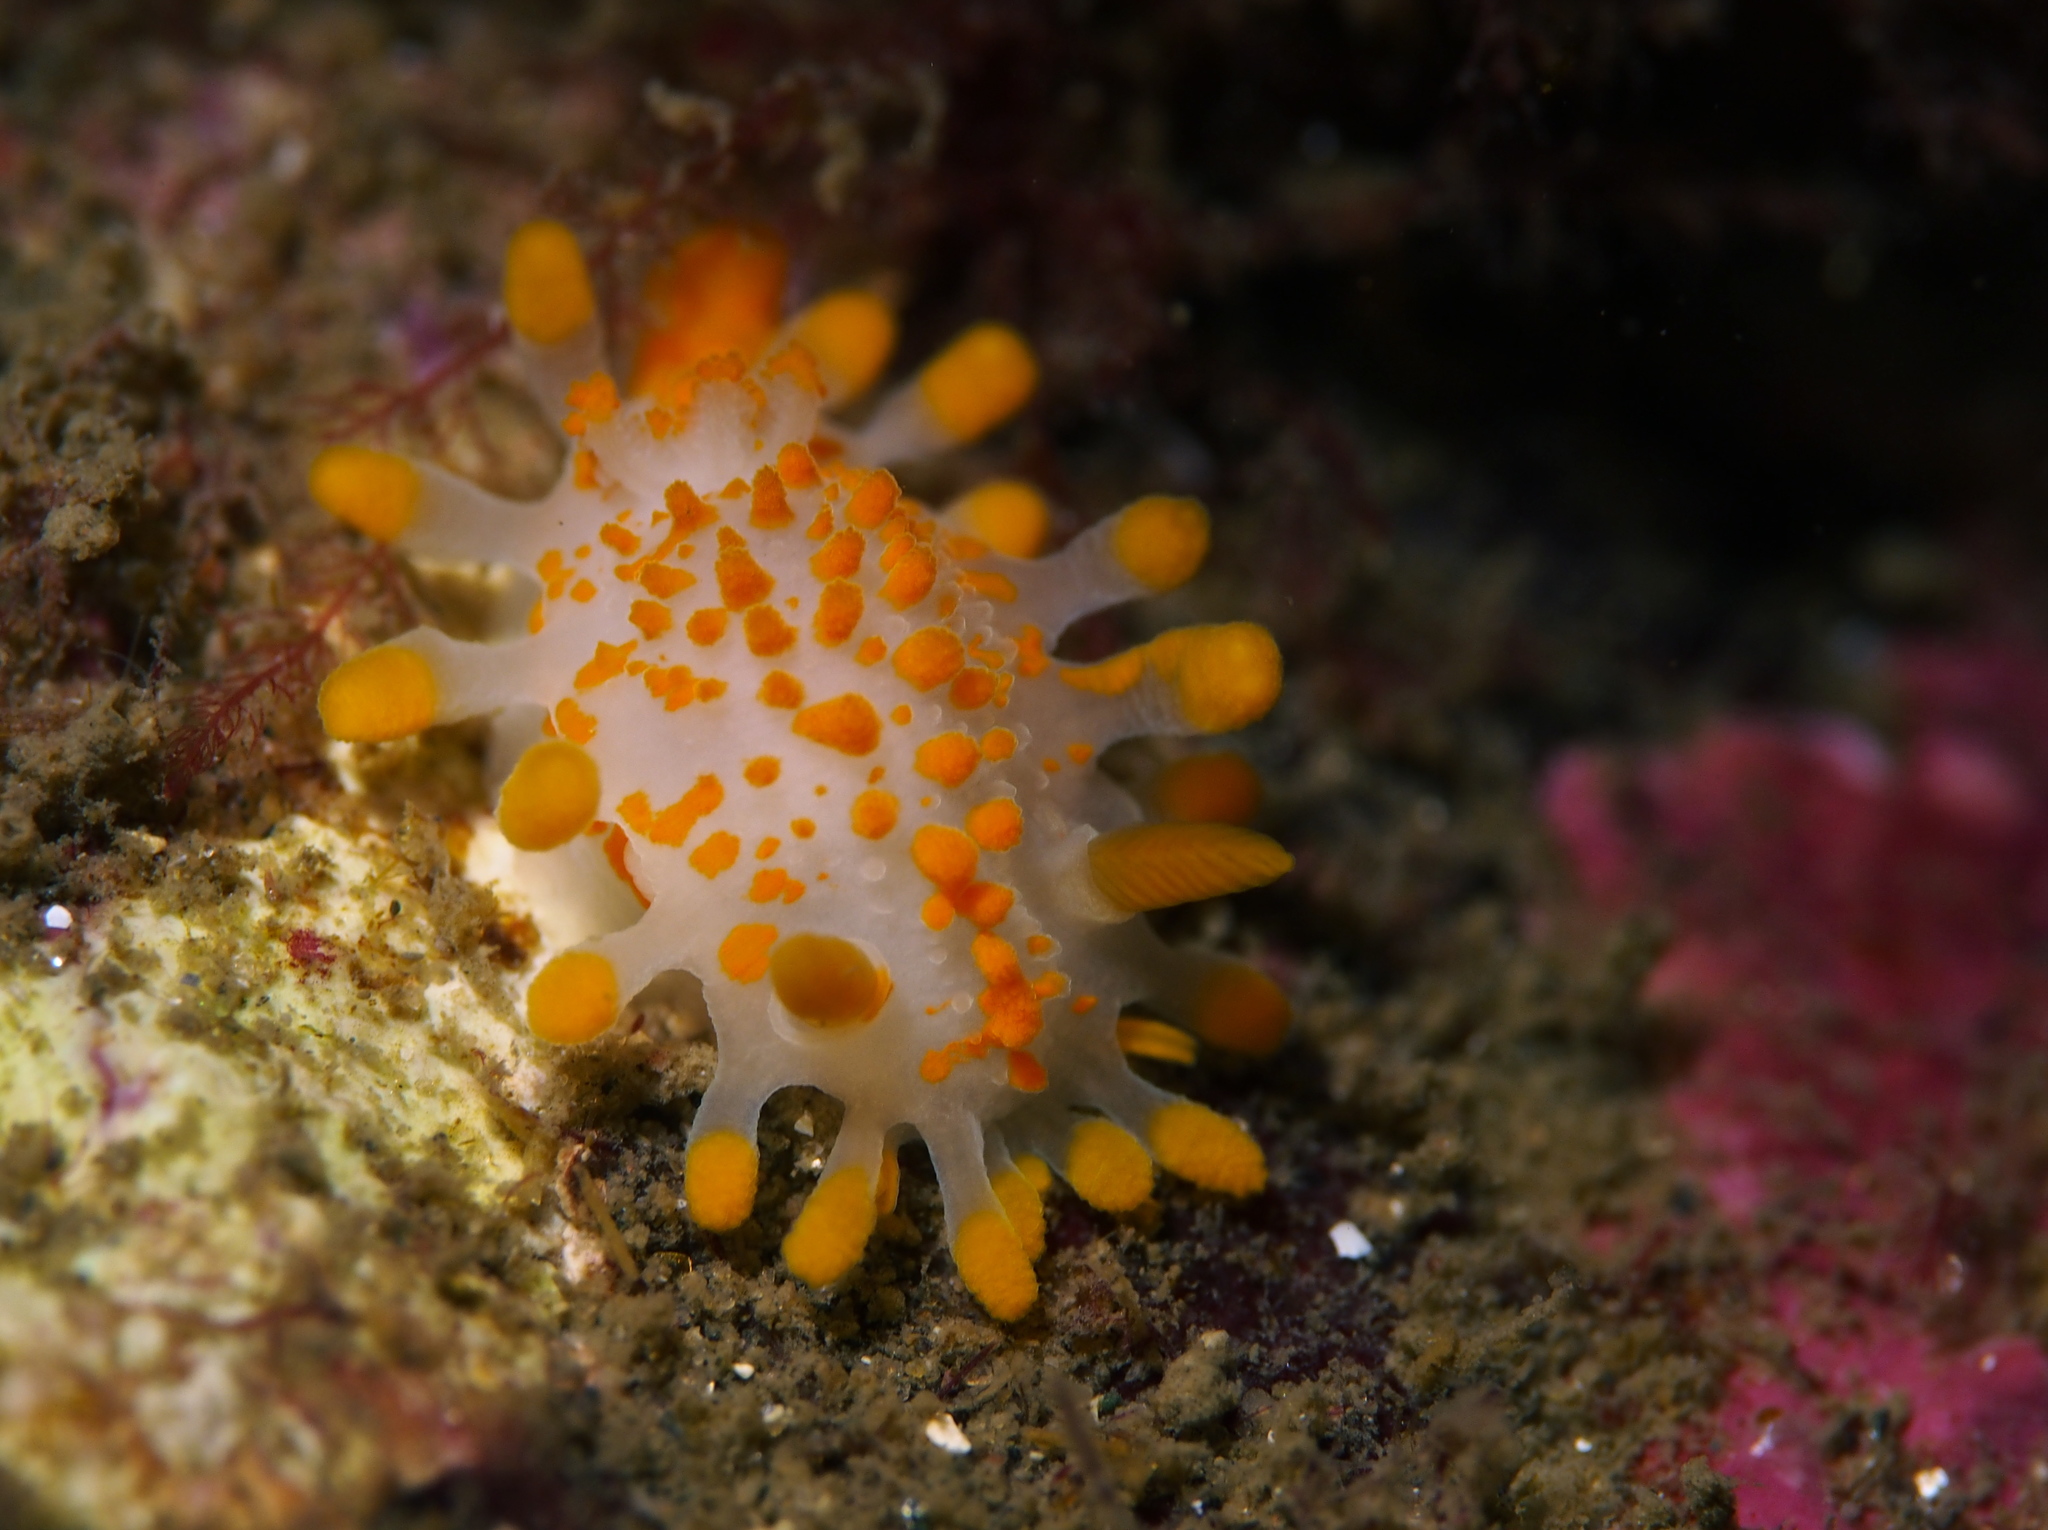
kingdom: Animalia
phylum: Mollusca
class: Gastropoda
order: Nudibranchia
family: Polyceridae
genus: Limacia
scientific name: Limacia clavigera
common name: Orange-clubbed sea slug
